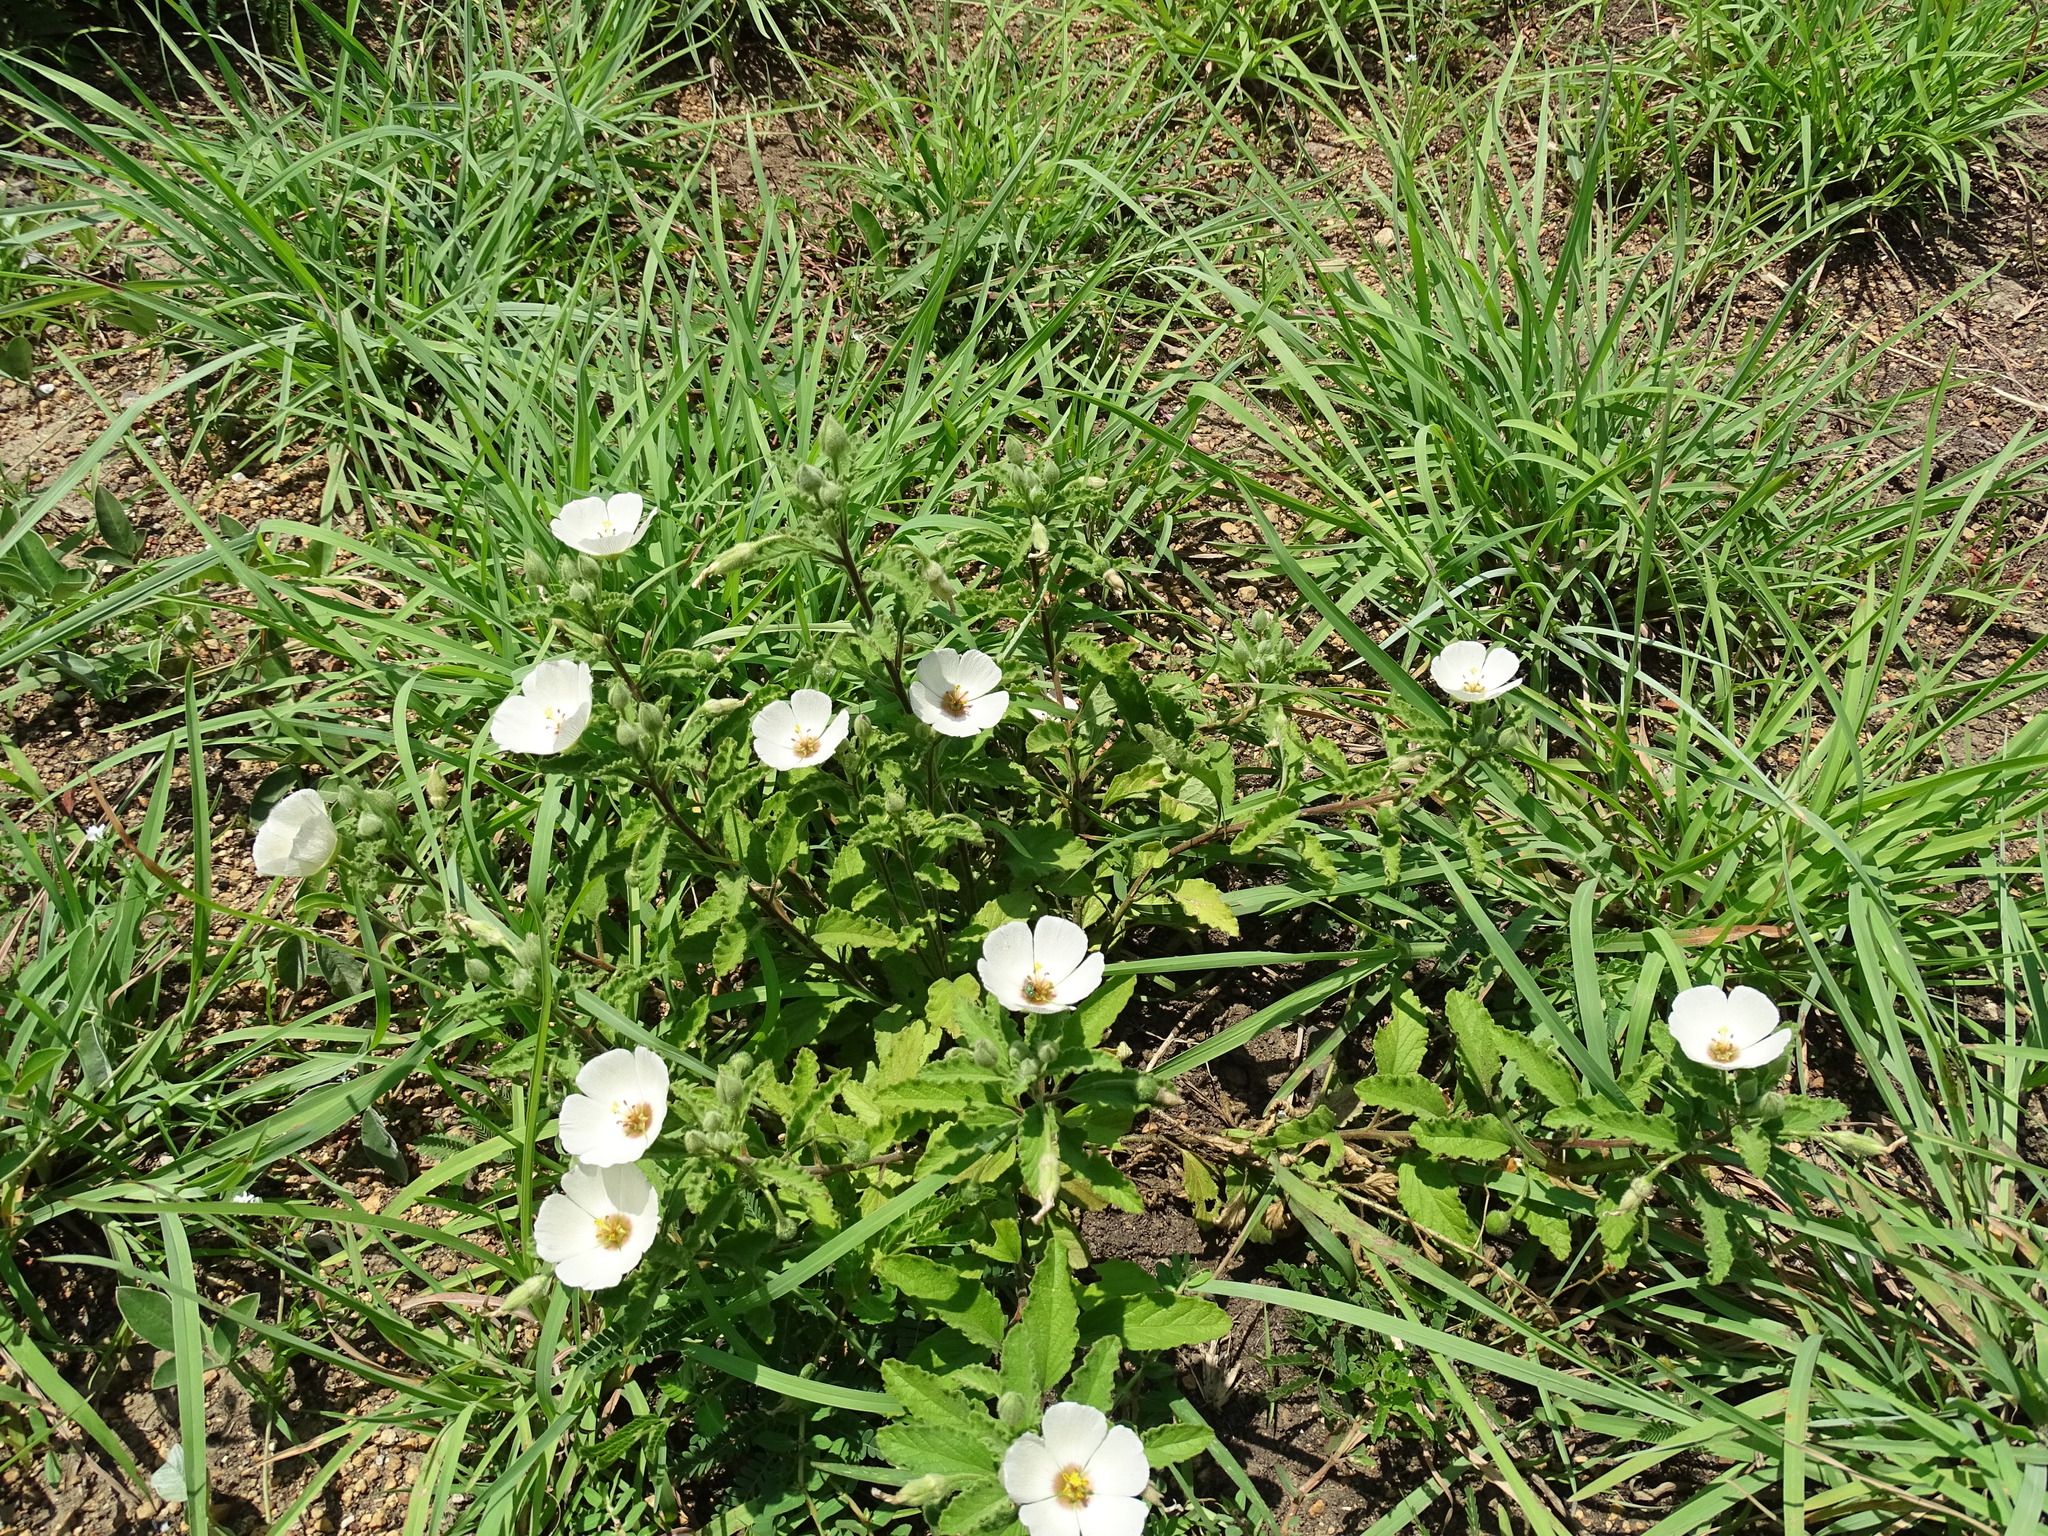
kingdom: Plantae
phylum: Tracheophyta
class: Magnoliopsida
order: Malpighiales
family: Turneraceae
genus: Piriqueta
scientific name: Piriqueta mortonii
